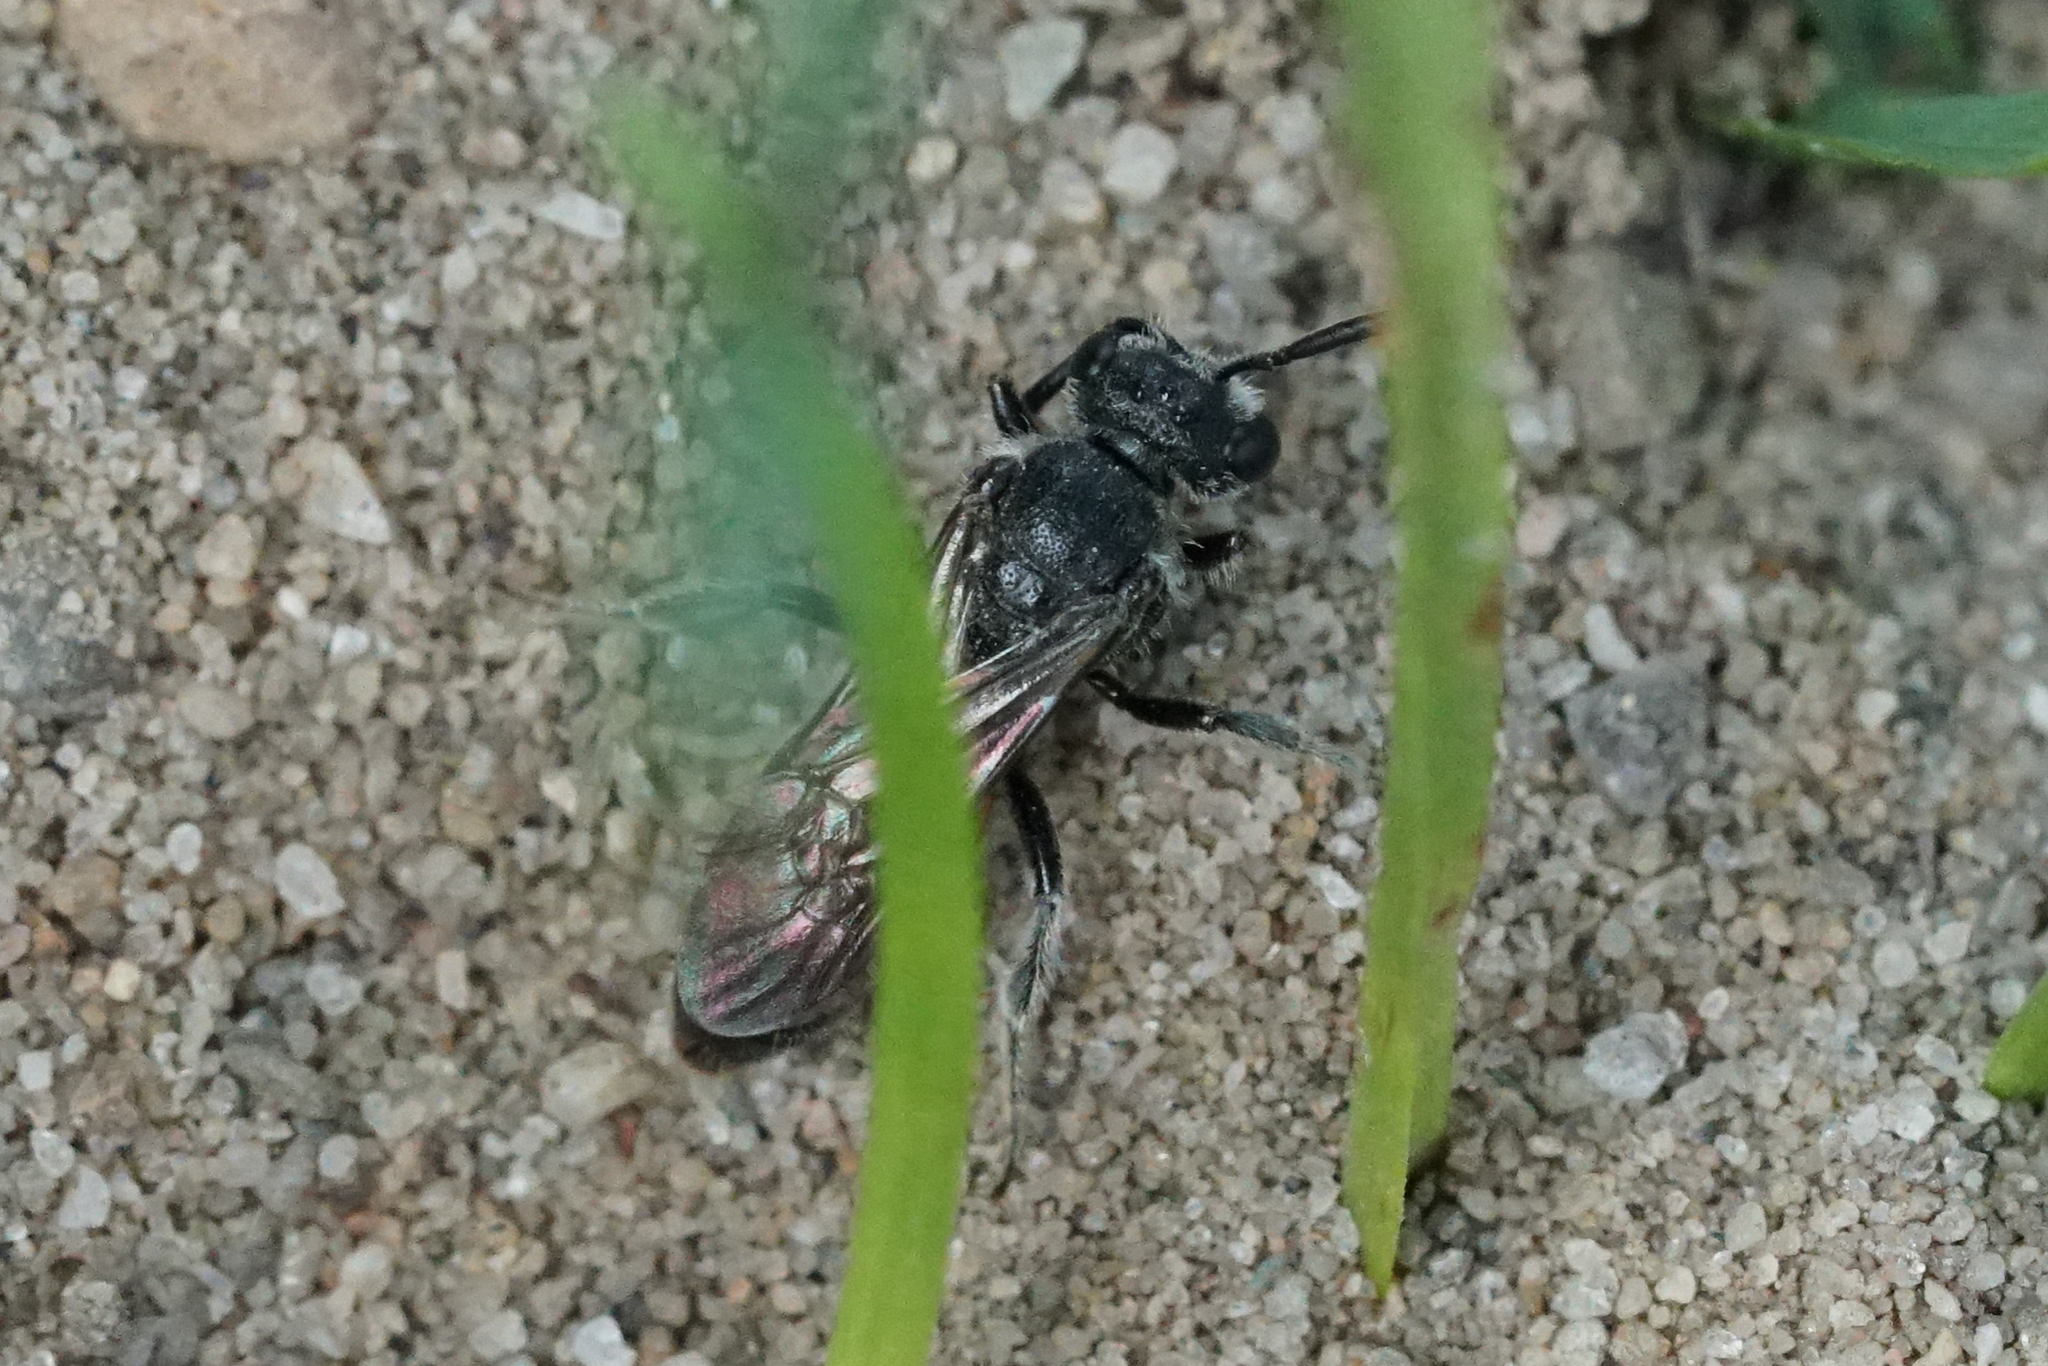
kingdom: Animalia
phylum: Arthropoda
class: Insecta
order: Hymenoptera
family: Halictidae
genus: Sphecodes
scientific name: Sphecodes
